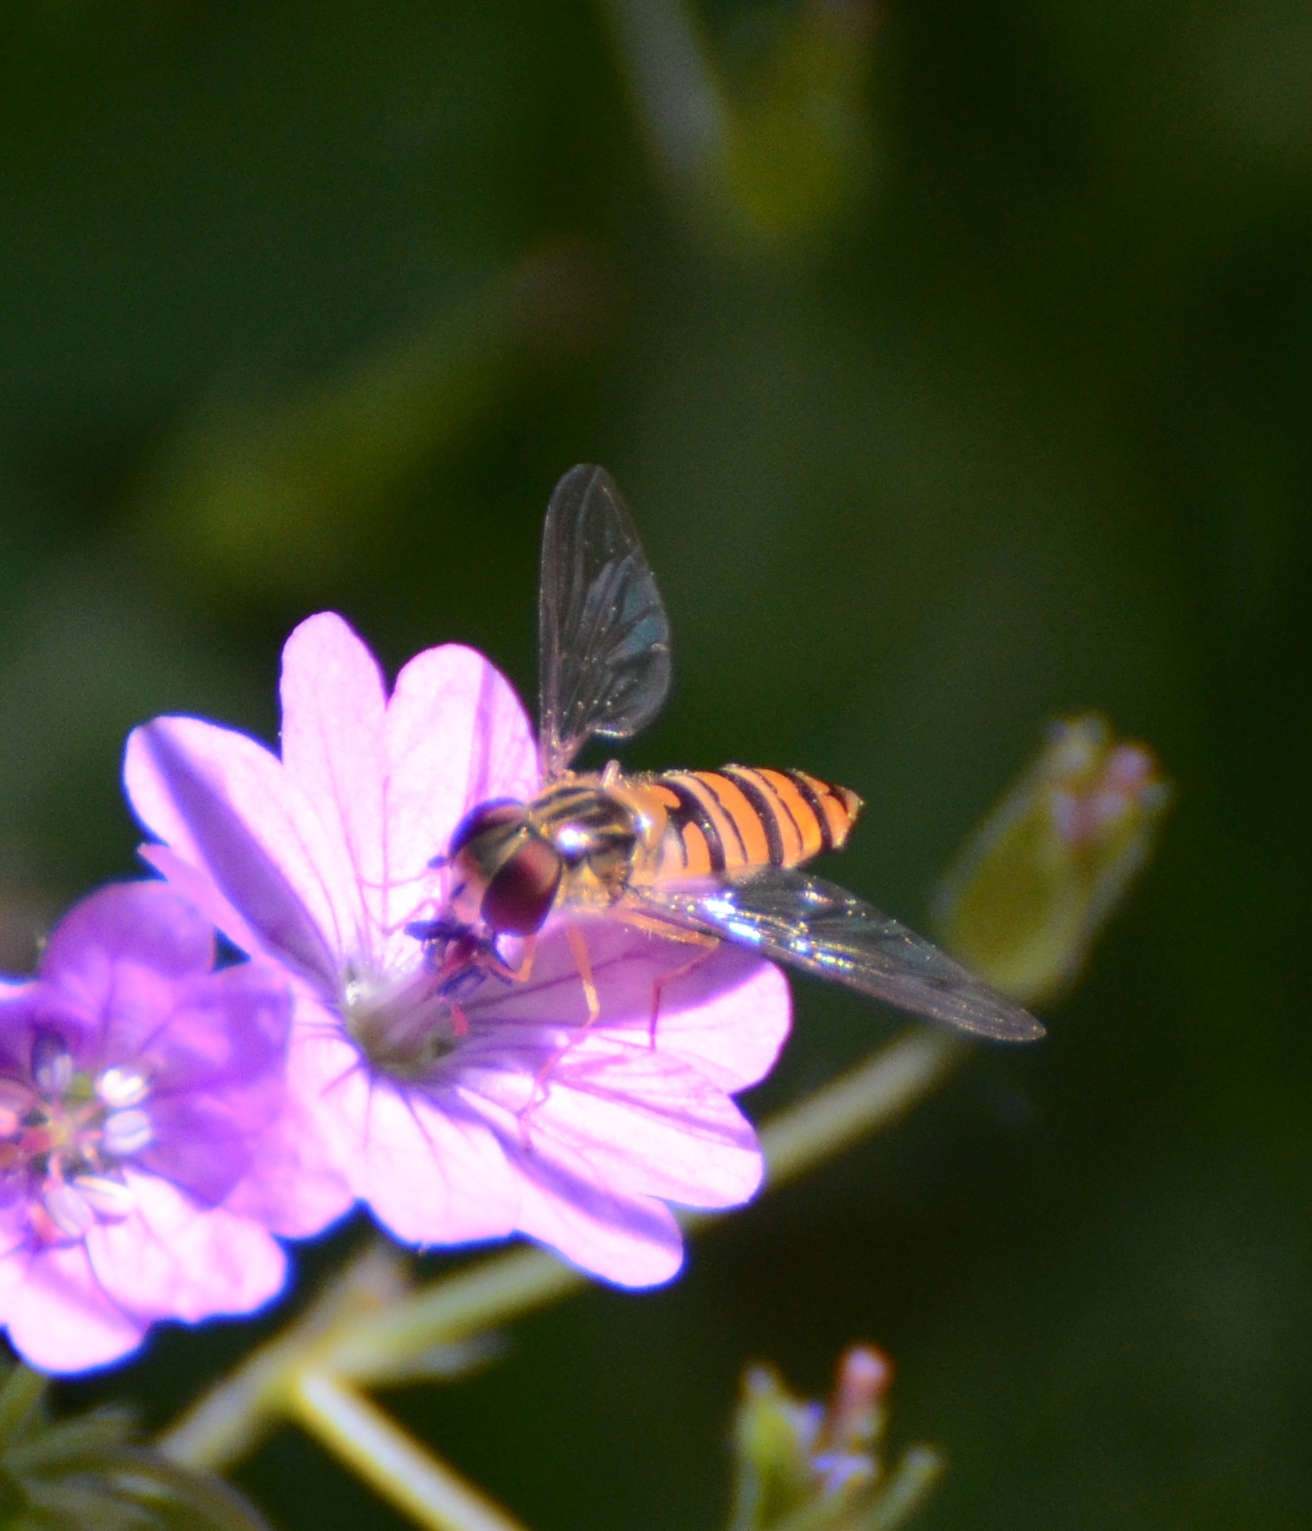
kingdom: Animalia
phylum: Arthropoda
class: Insecta
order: Diptera
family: Syrphidae
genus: Episyrphus
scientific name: Episyrphus balteatus
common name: Marmalade hoverfly
